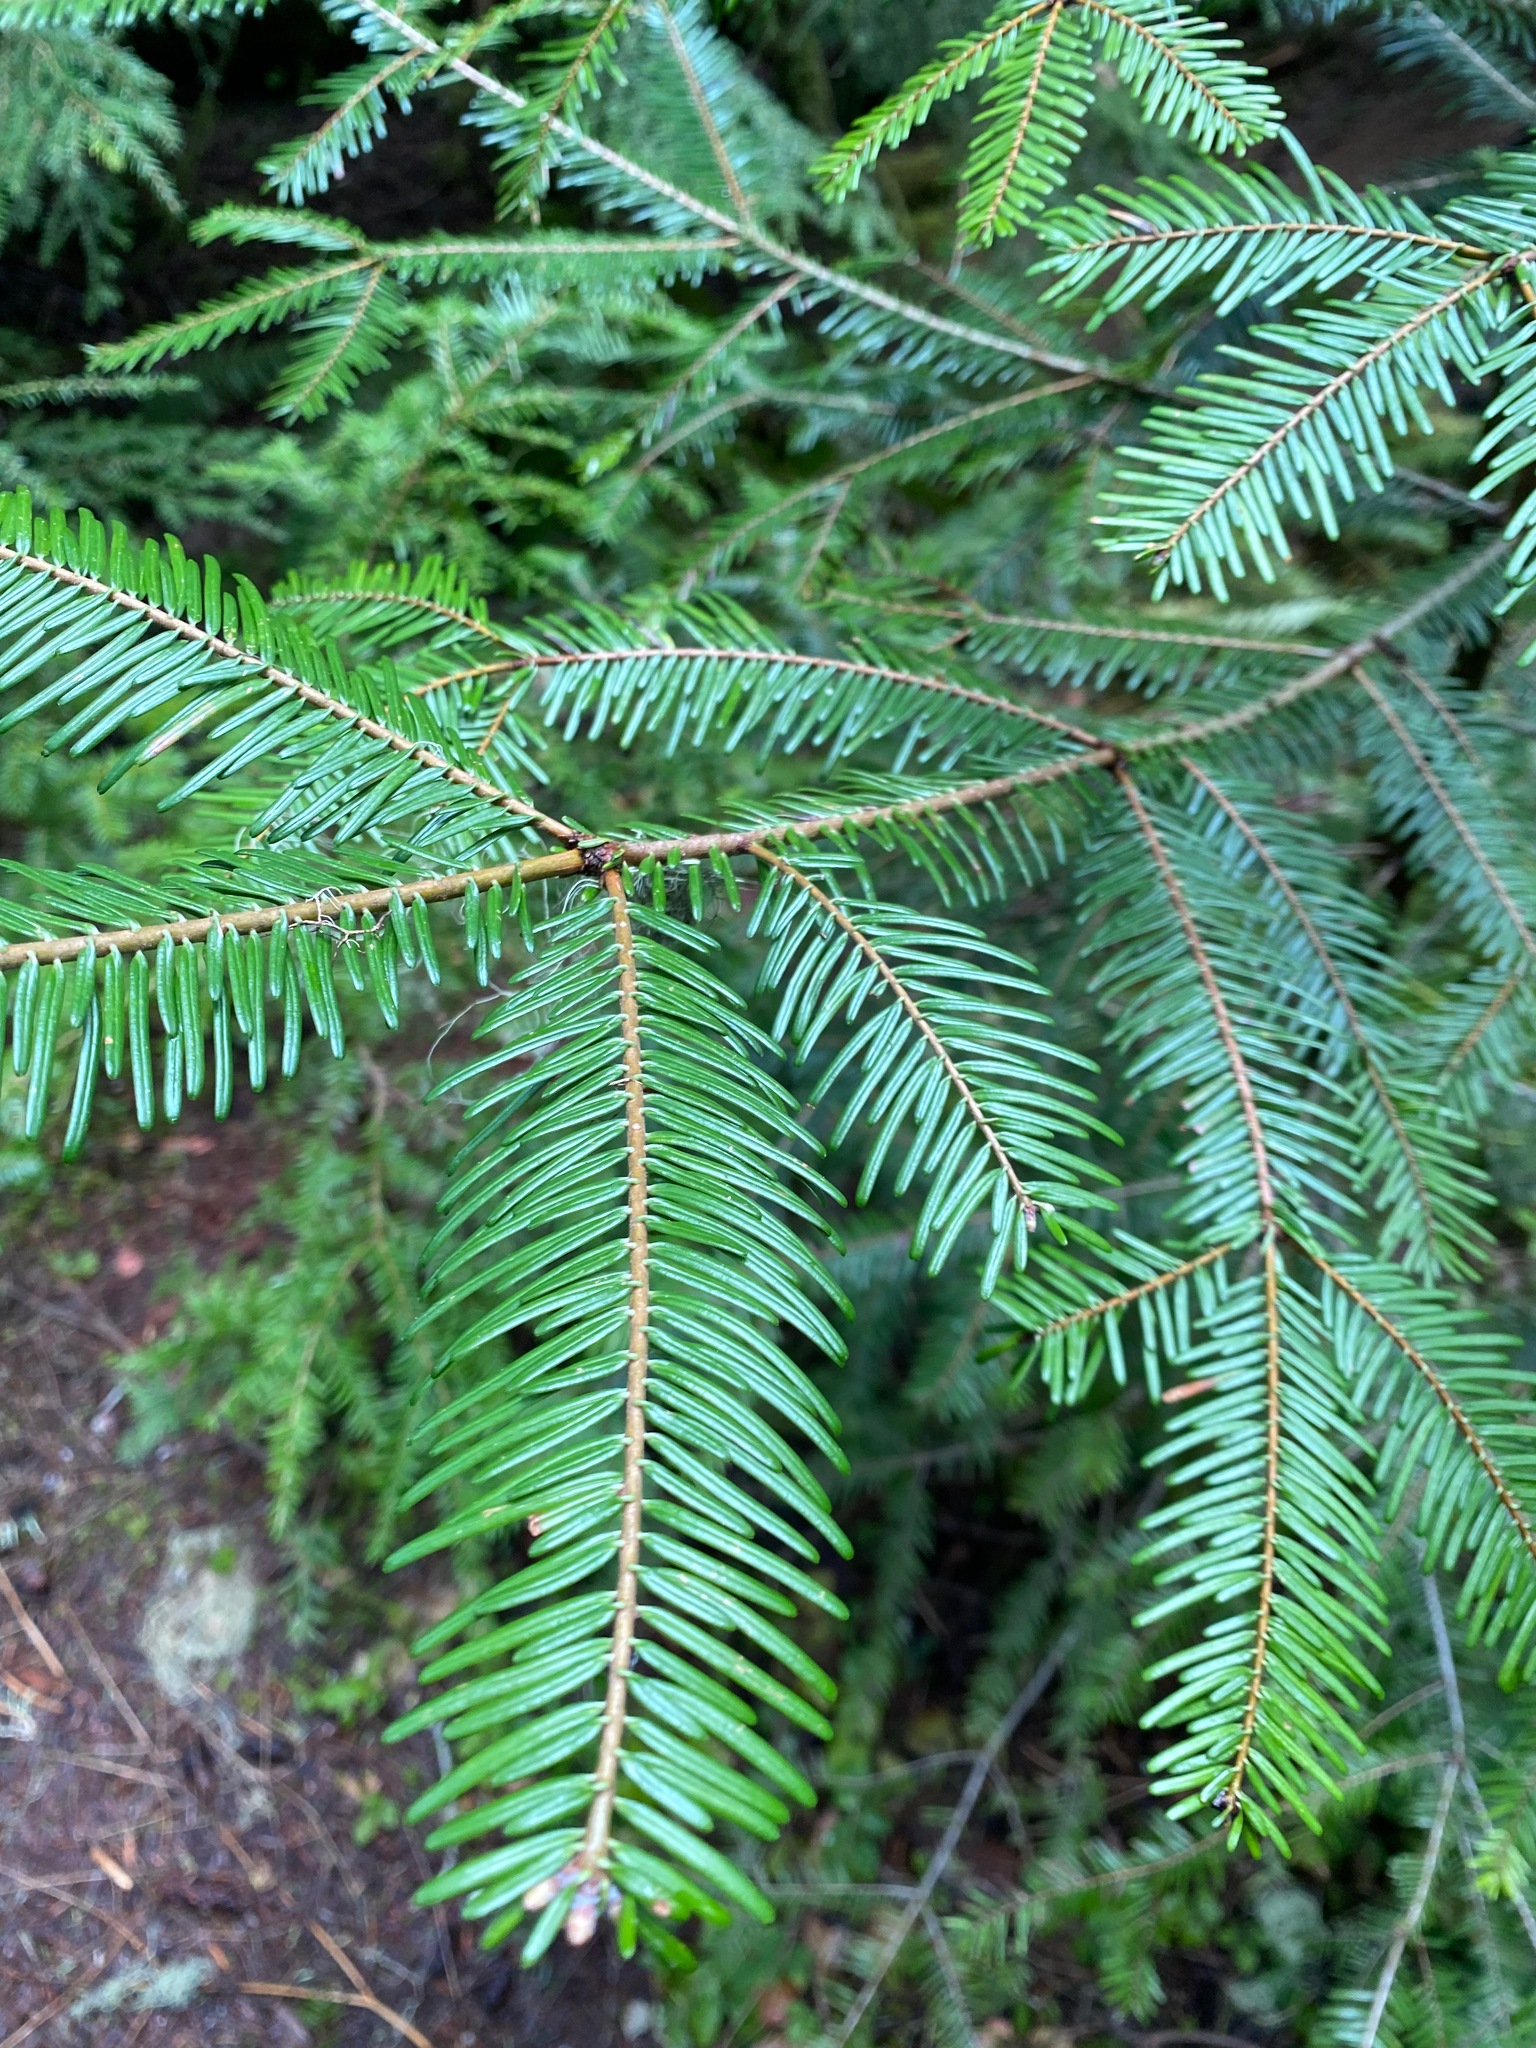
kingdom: Plantae
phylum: Tracheophyta
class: Pinopsida
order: Pinales
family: Pinaceae
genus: Abies
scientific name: Abies grandis
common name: Giant fir
